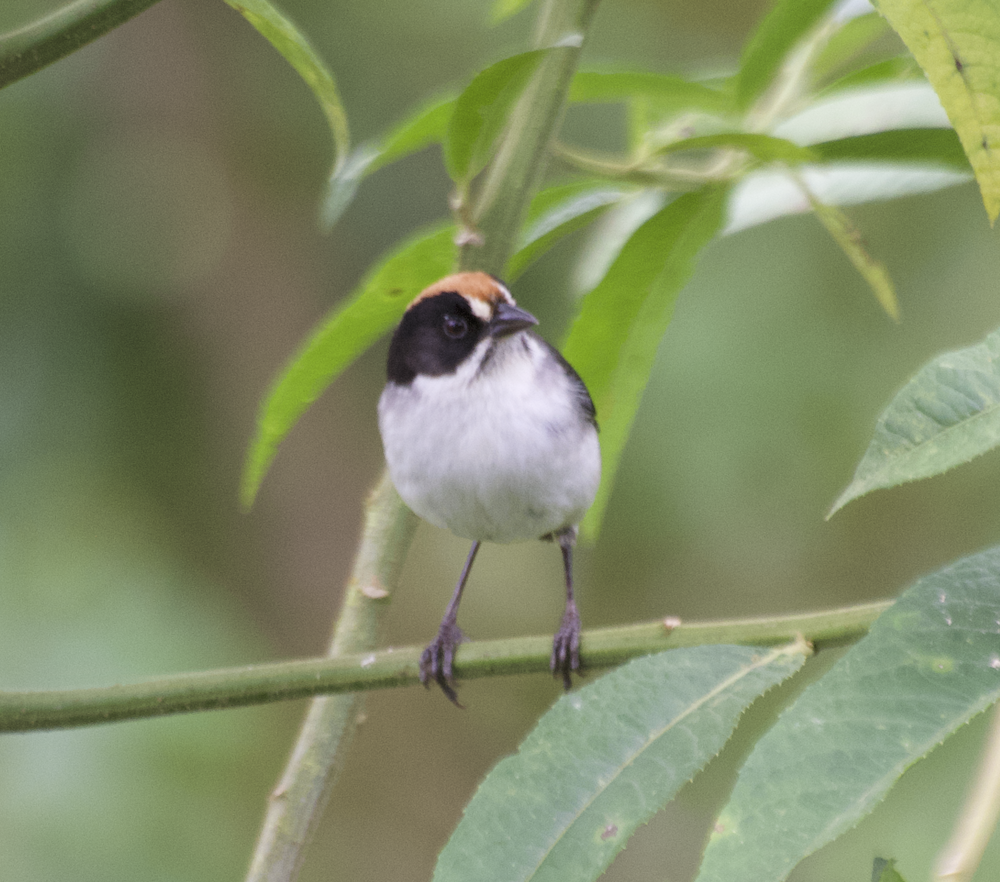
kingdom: Animalia
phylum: Chordata
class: Aves
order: Passeriformes
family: Passerellidae
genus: Atlapetes
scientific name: Atlapetes leucopterus
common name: White-winged brushfinch
